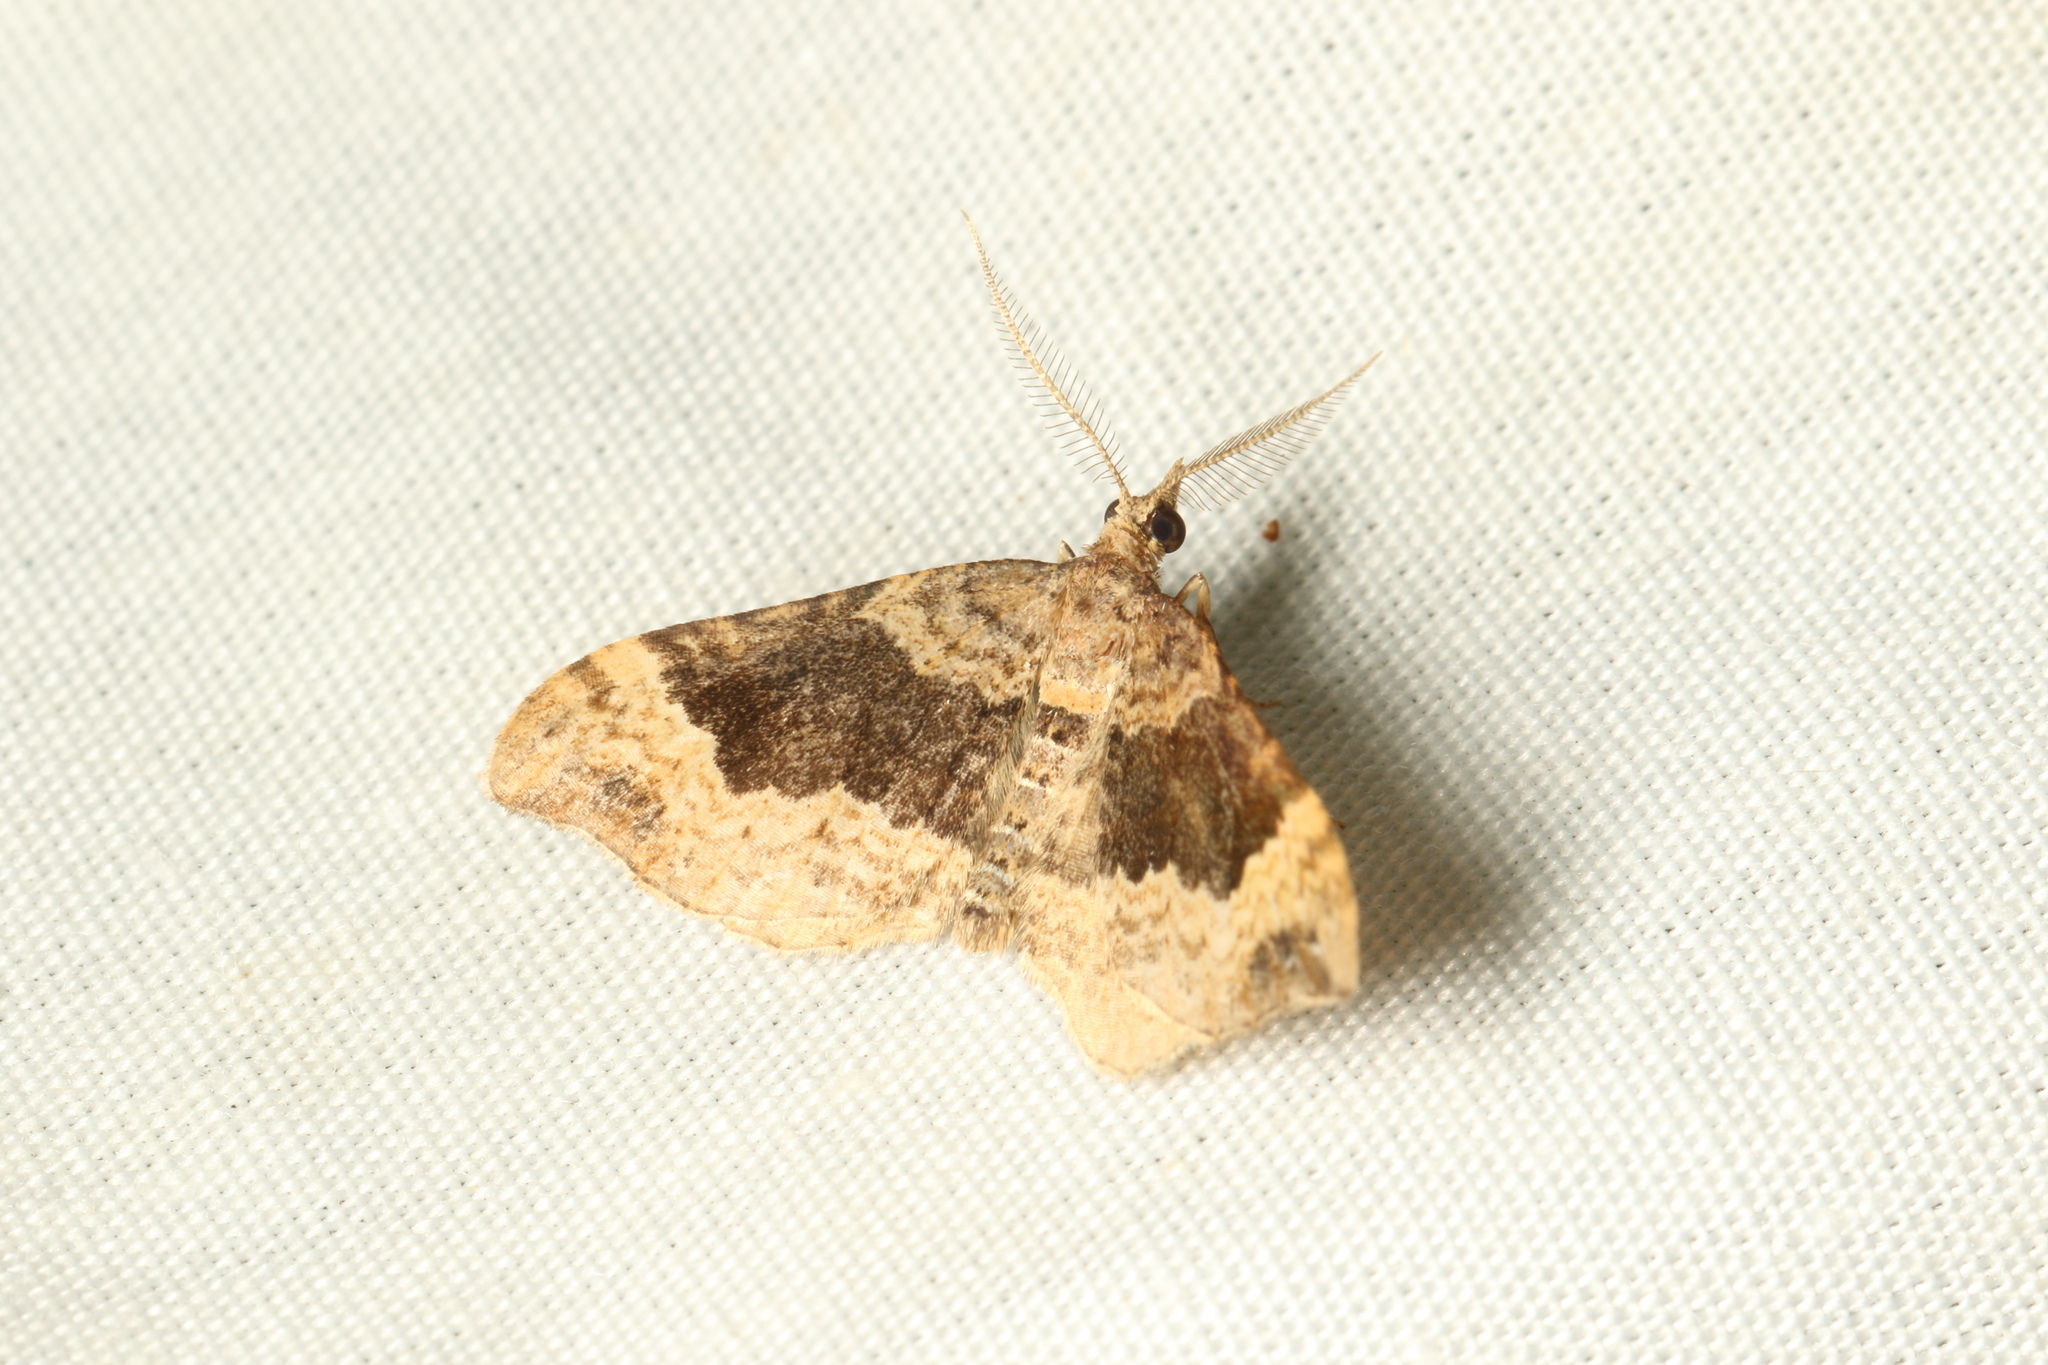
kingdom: Animalia
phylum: Arthropoda
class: Insecta
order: Lepidoptera
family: Geometridae
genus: Epyaxa
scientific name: Epyaxa rosearia
